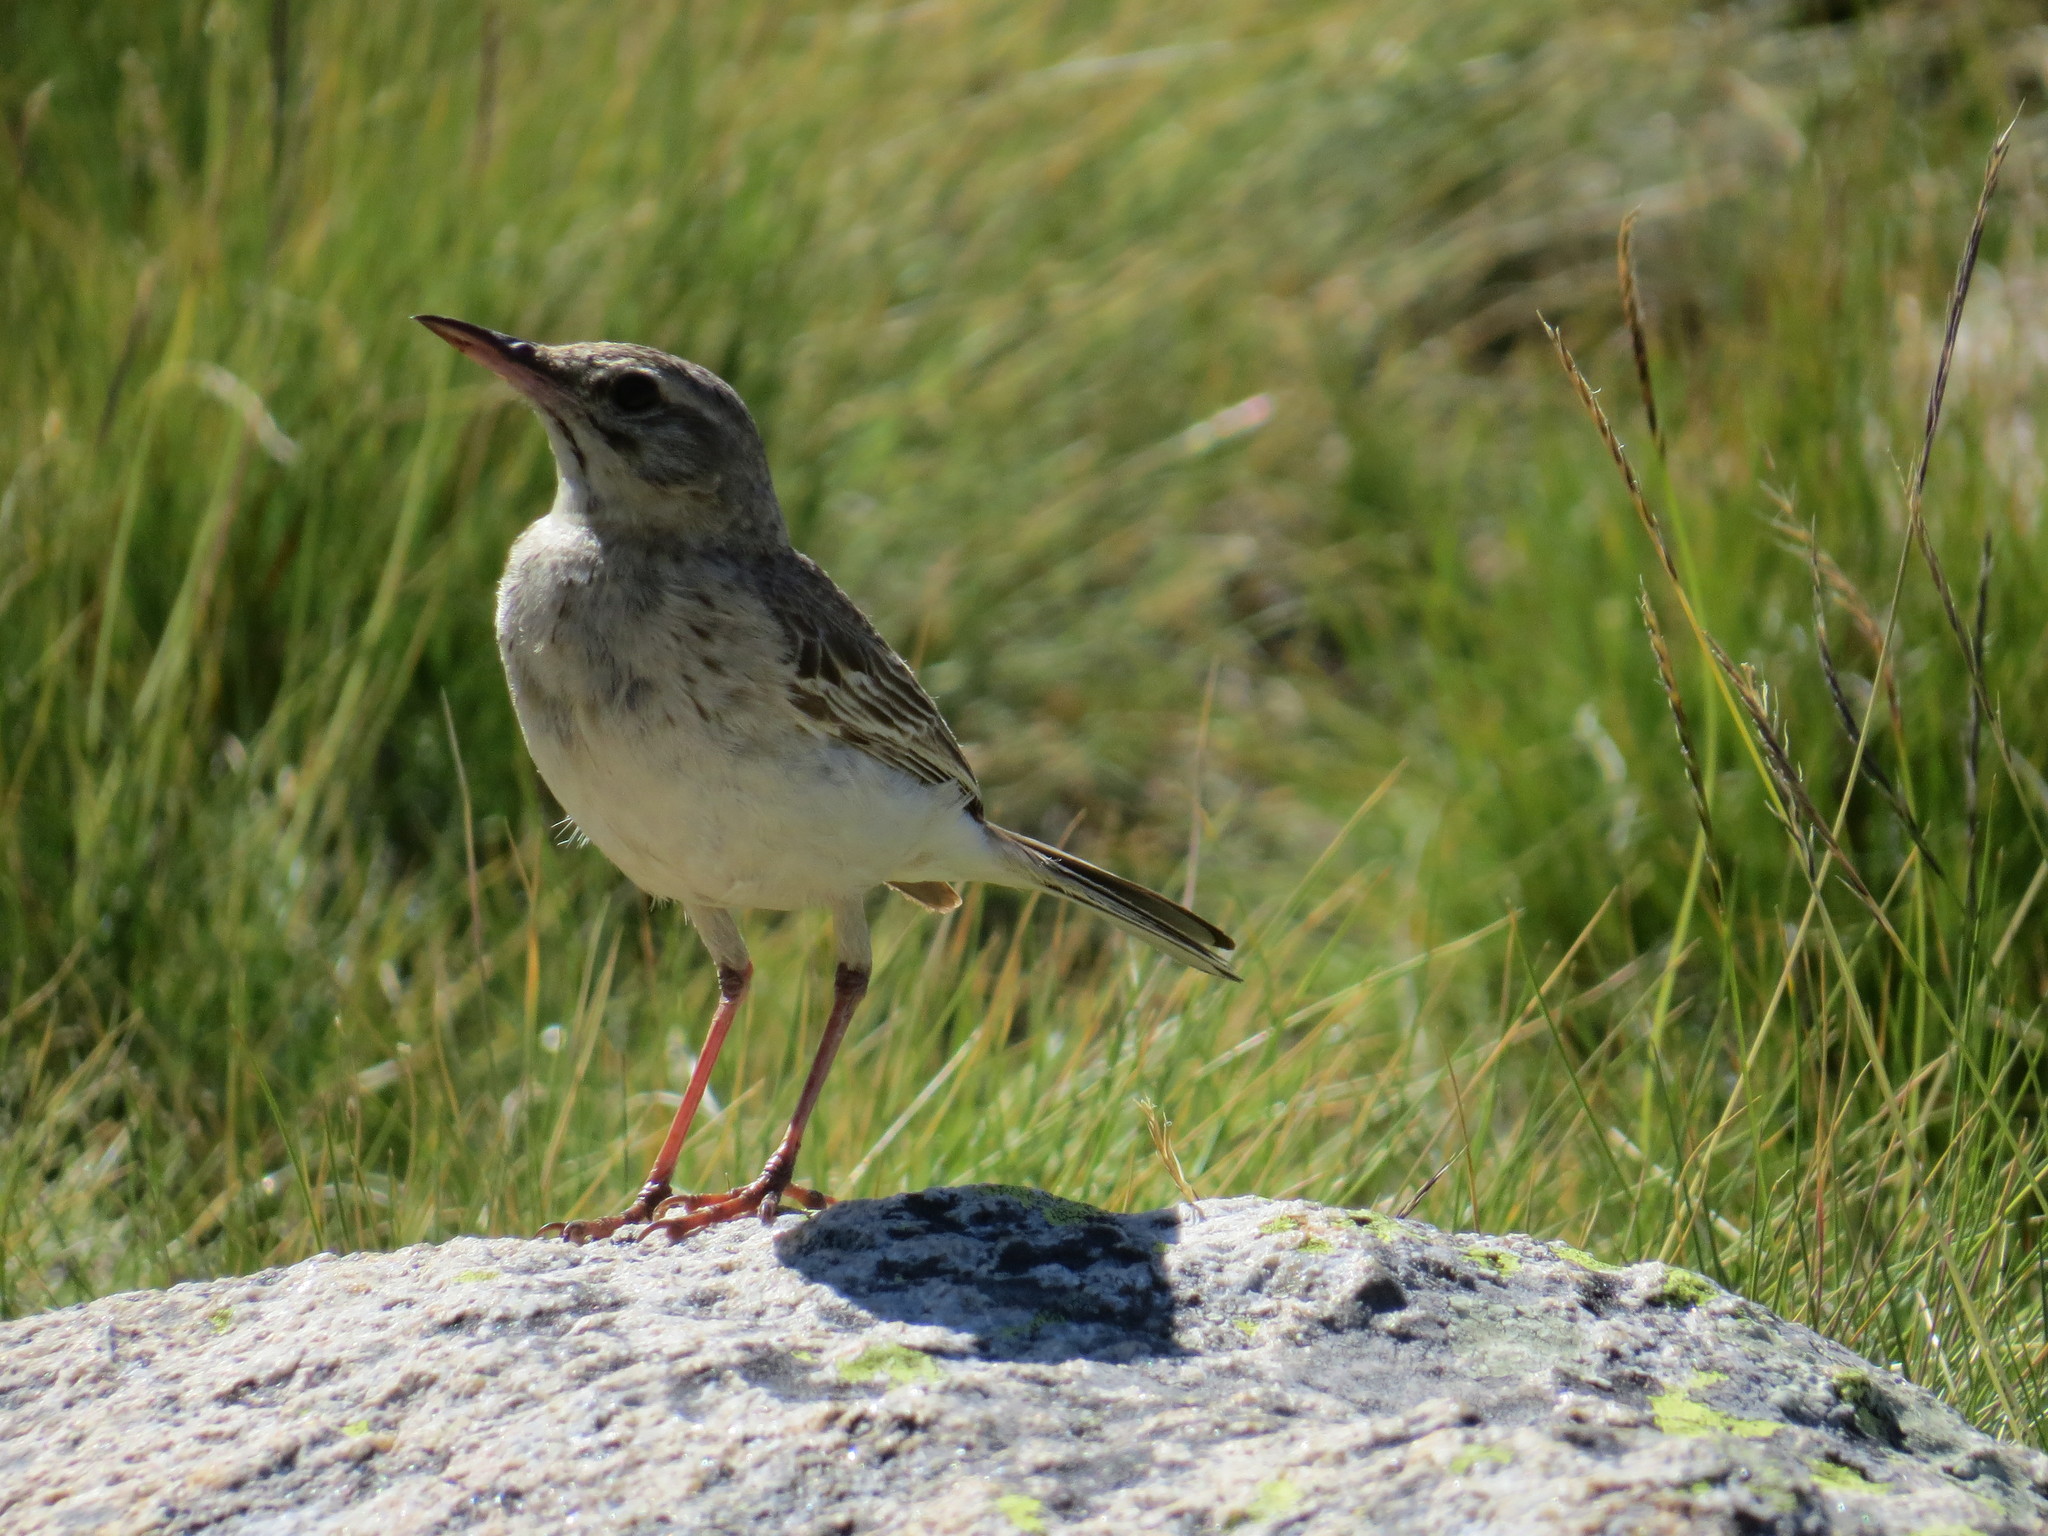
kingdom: Animalia
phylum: Chordata
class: Aves
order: Passeriformes
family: Motacillidae
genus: Anthus
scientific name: Anthus campestris
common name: Tawny pipit
